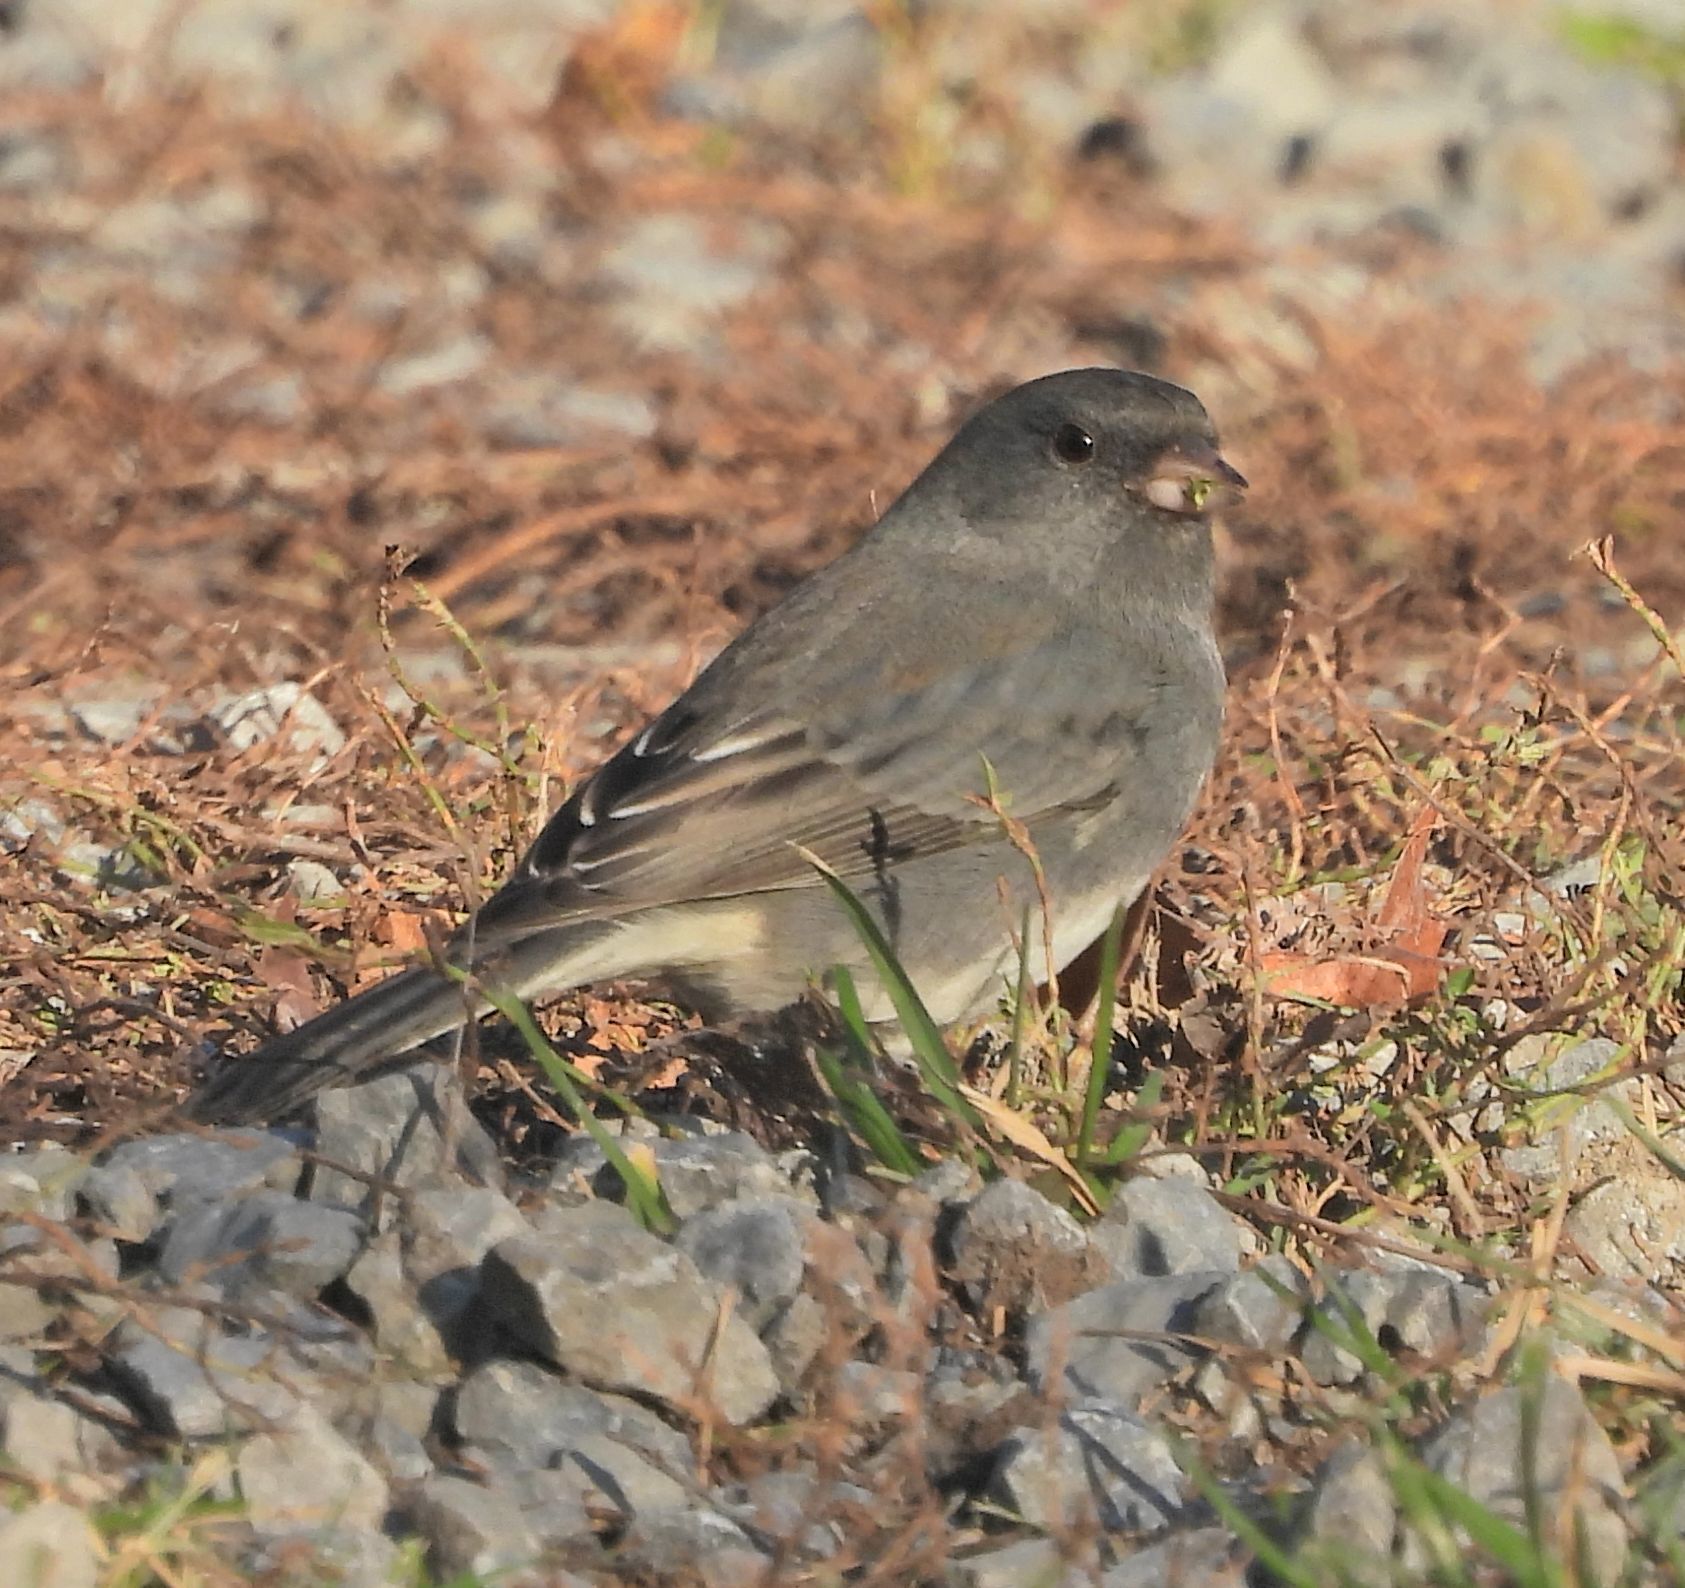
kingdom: Animalia
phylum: Chordata
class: Aves
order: Passeriformes
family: Passerellidae
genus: Junco
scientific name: Junco hyemalis
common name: Dark-eyed junco
